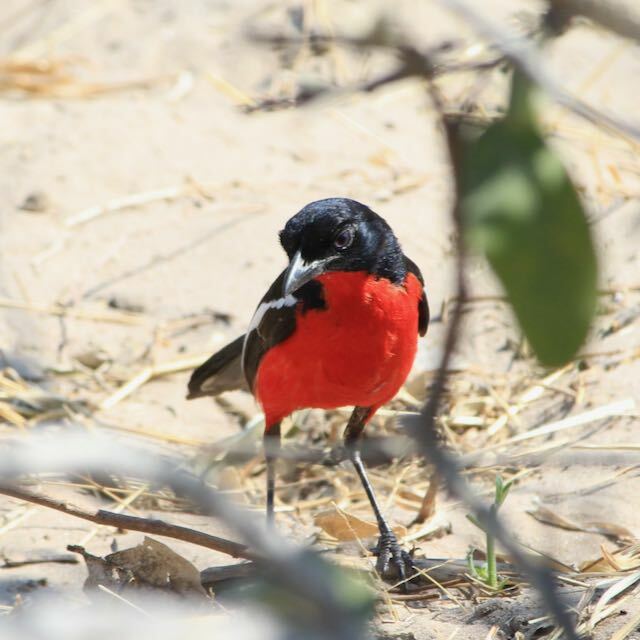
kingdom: Animalia
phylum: Chordata
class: Aves
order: Passeriformes
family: Malaconotidae
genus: Laniarius
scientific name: Laniarius atrococcineus
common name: Crimson-breasted shrike
